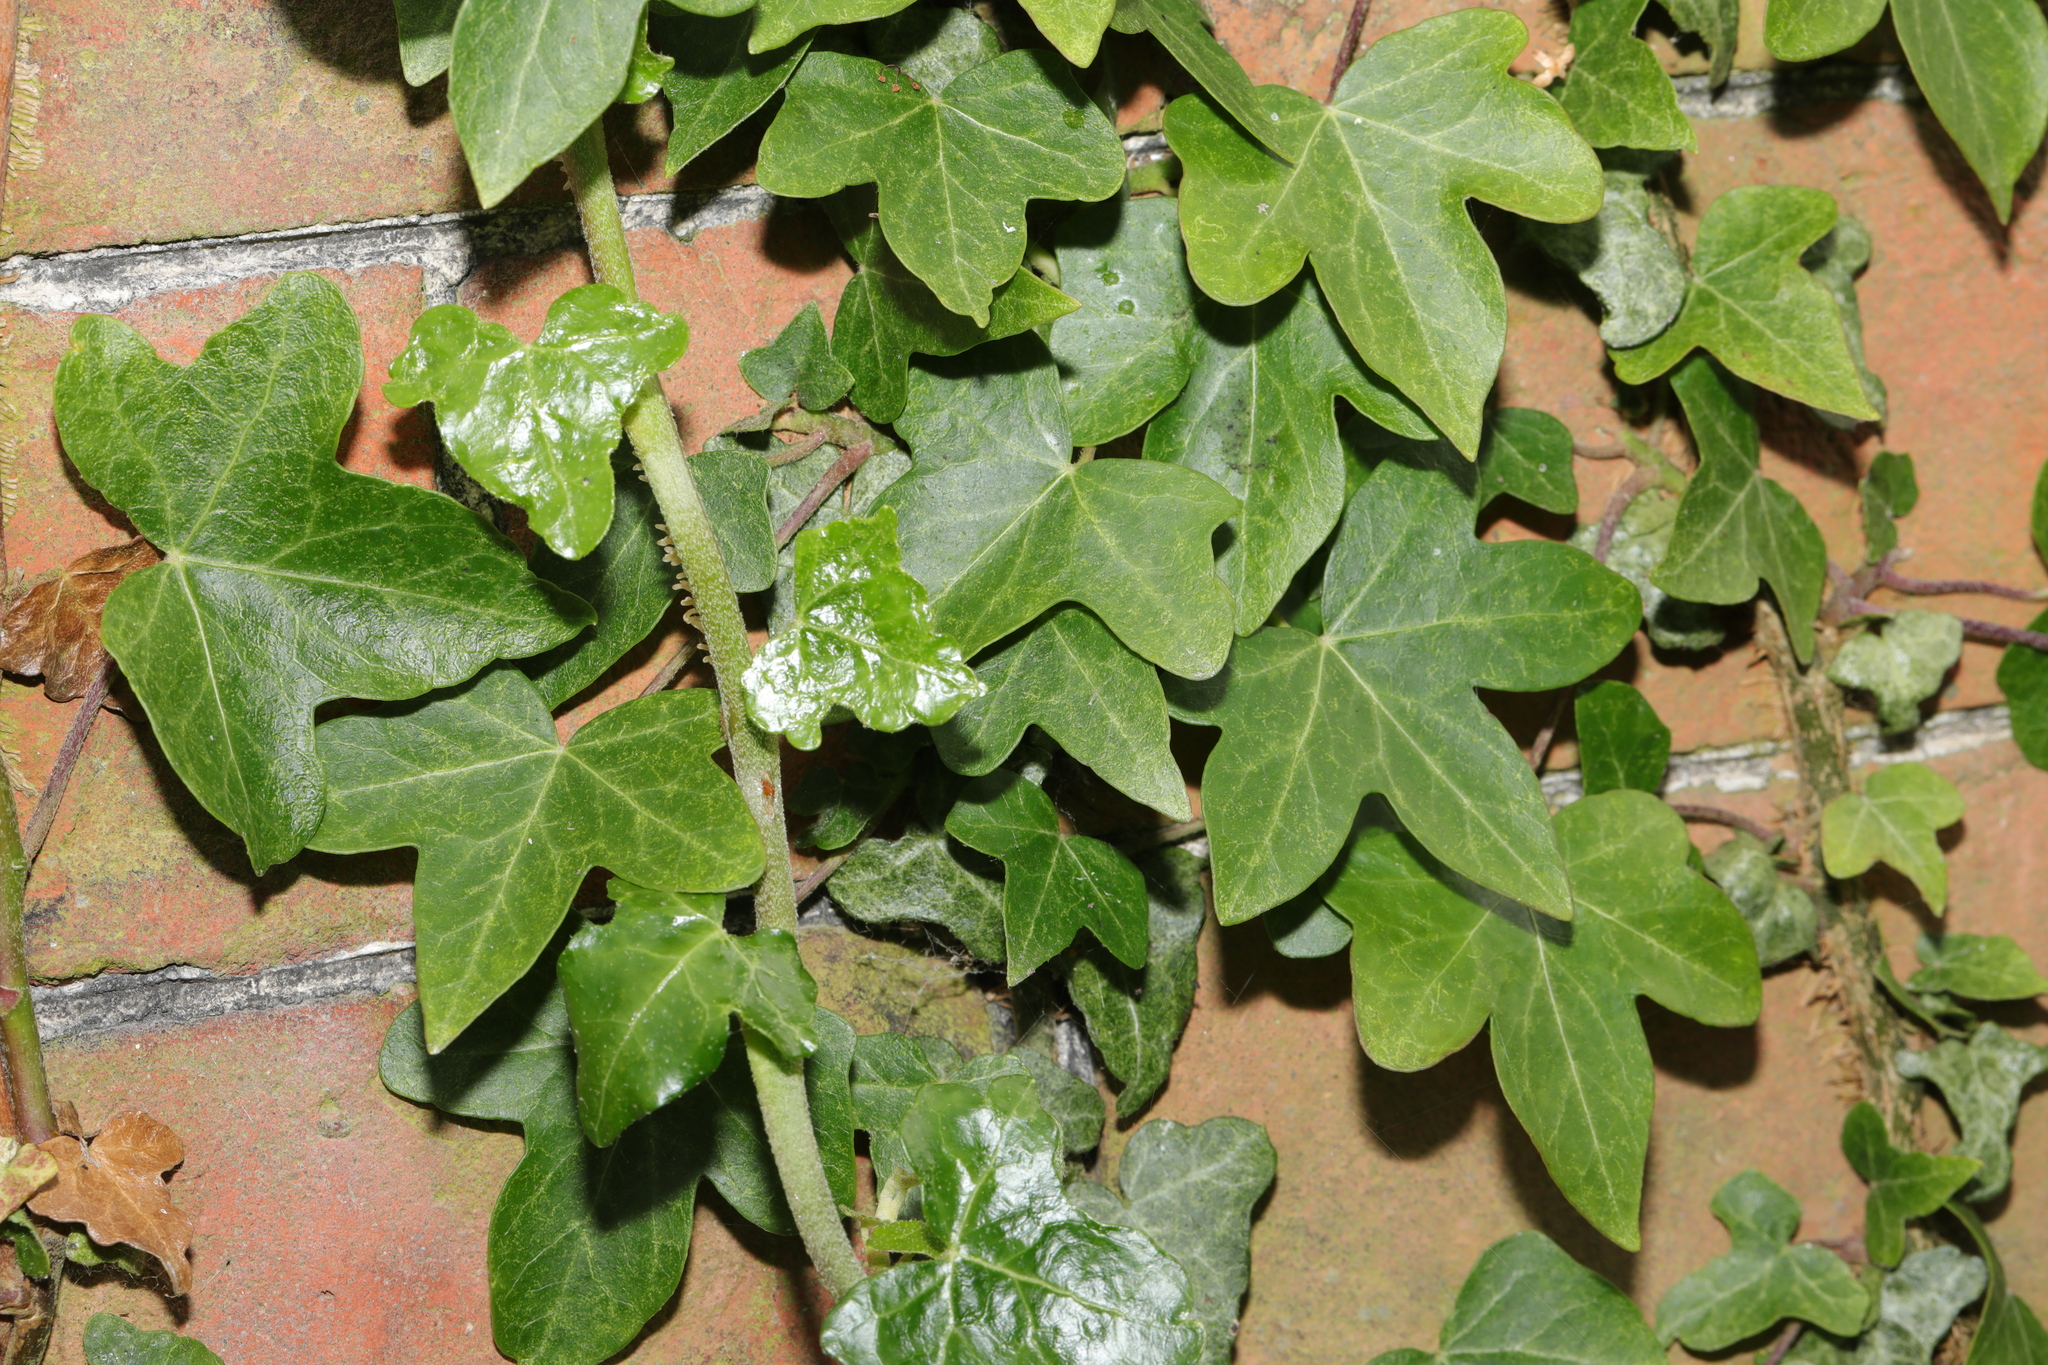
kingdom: Plantae
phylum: Tracheophyta
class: Magnoliopsida
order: Apiales
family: Araliaceae
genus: Hedera
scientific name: Hedera helix
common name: Ivy
